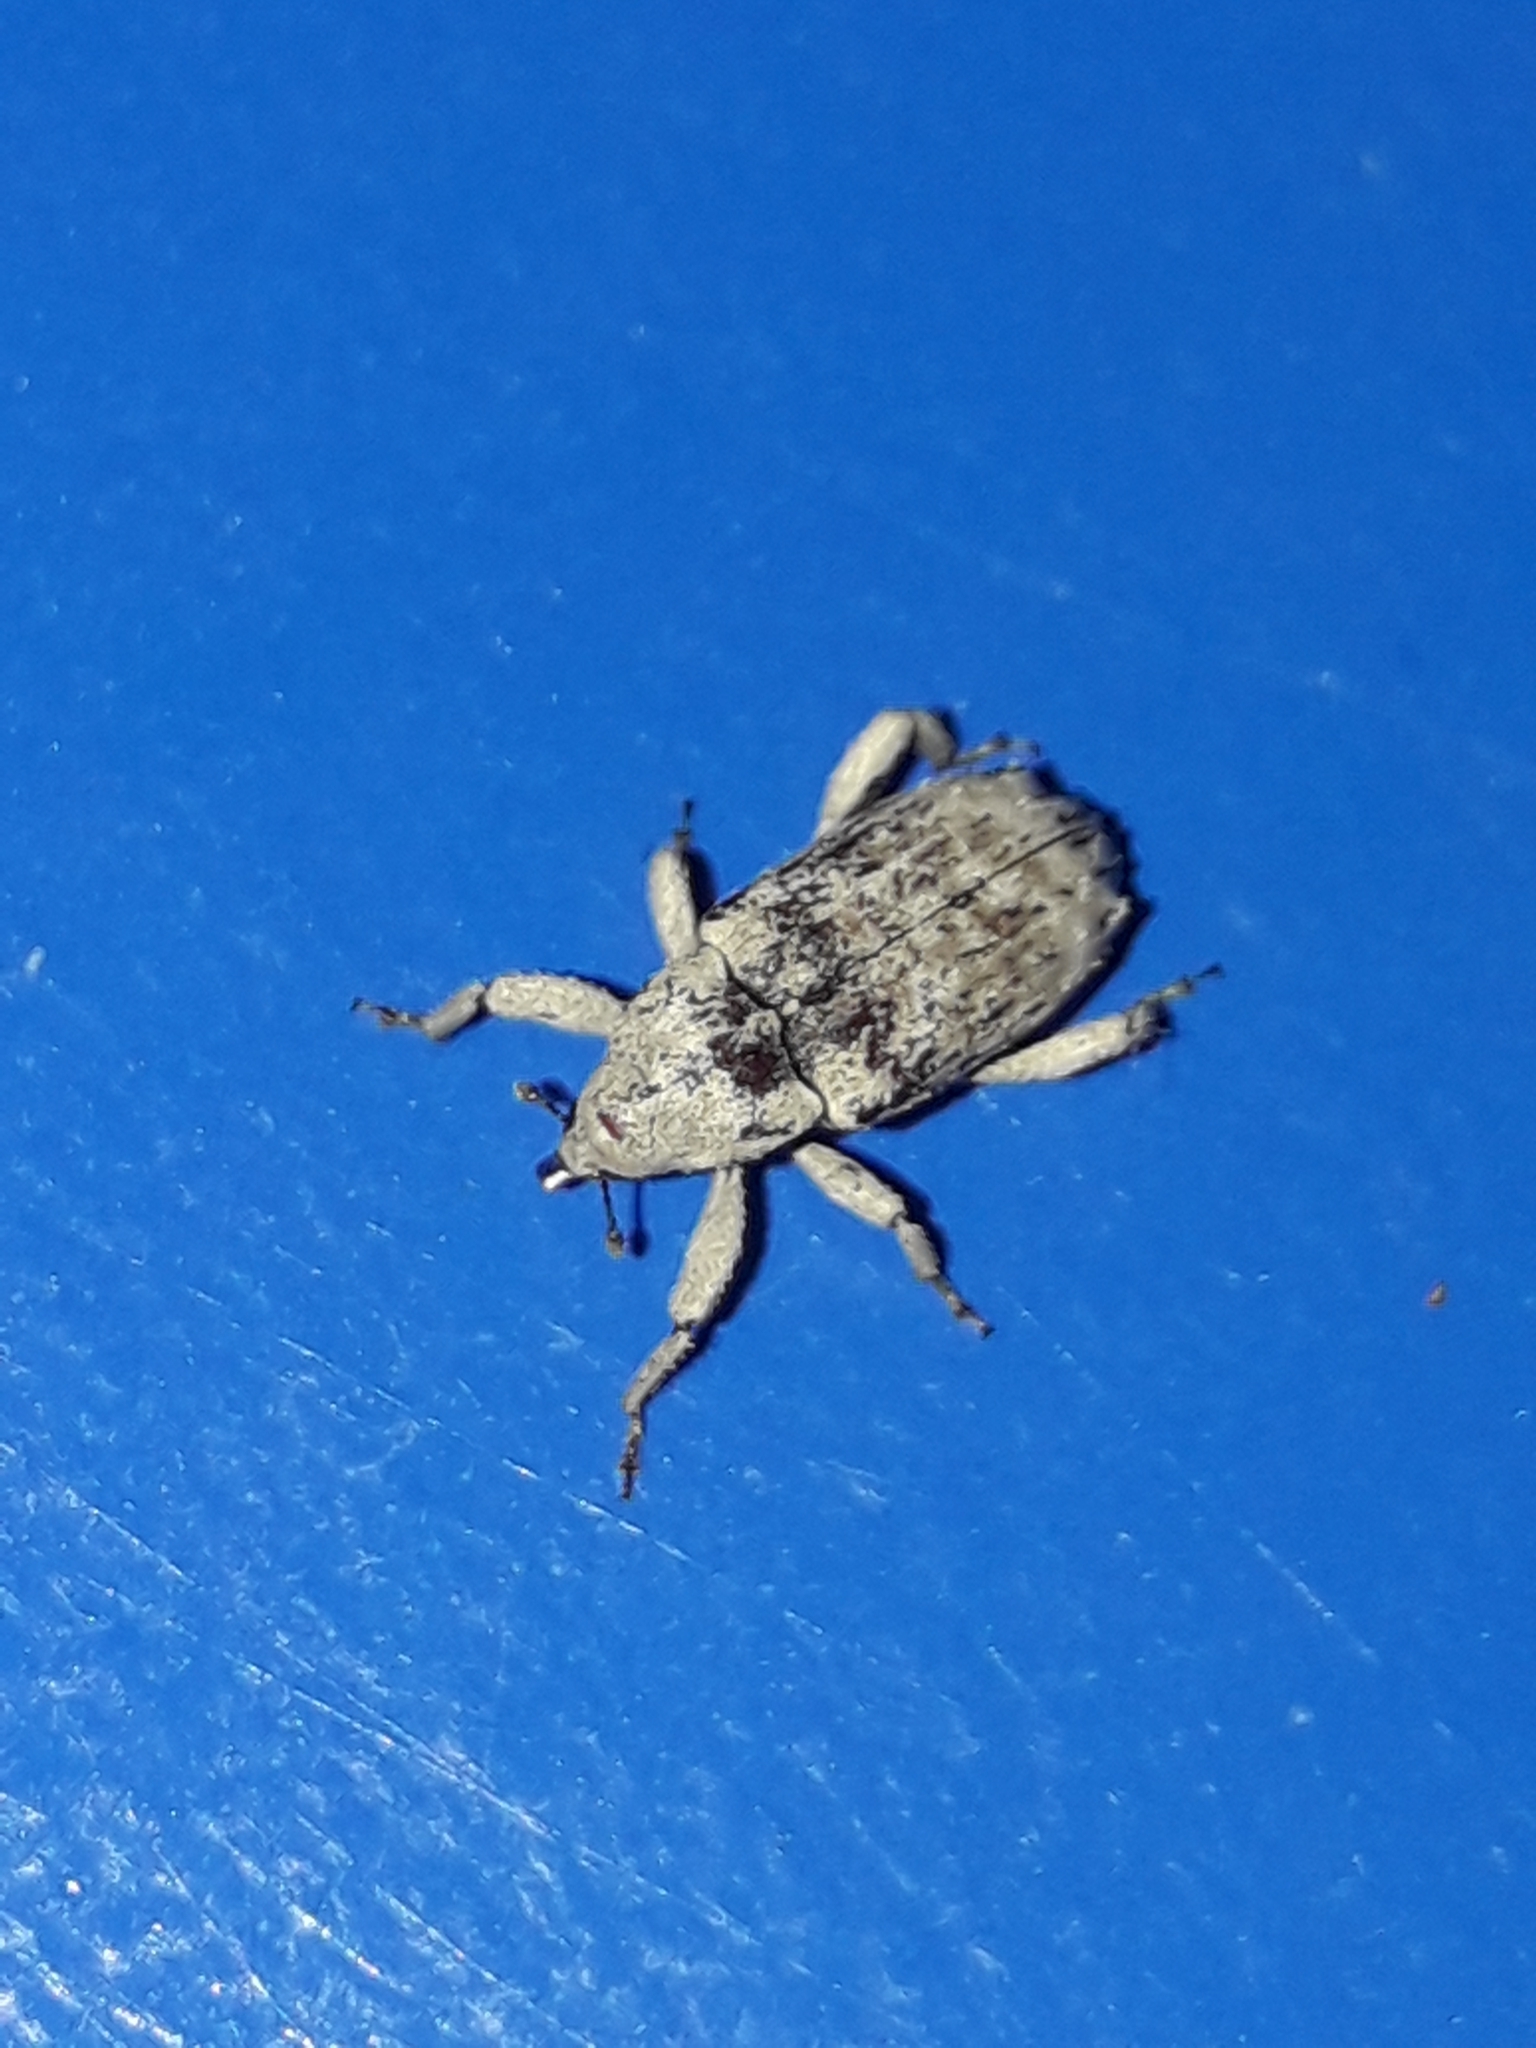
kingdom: Animalia
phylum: Arthropoda
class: Insecta
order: Coleoptera
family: Curculionidae
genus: Mitrastethus
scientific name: Mitrastethus baridioides
